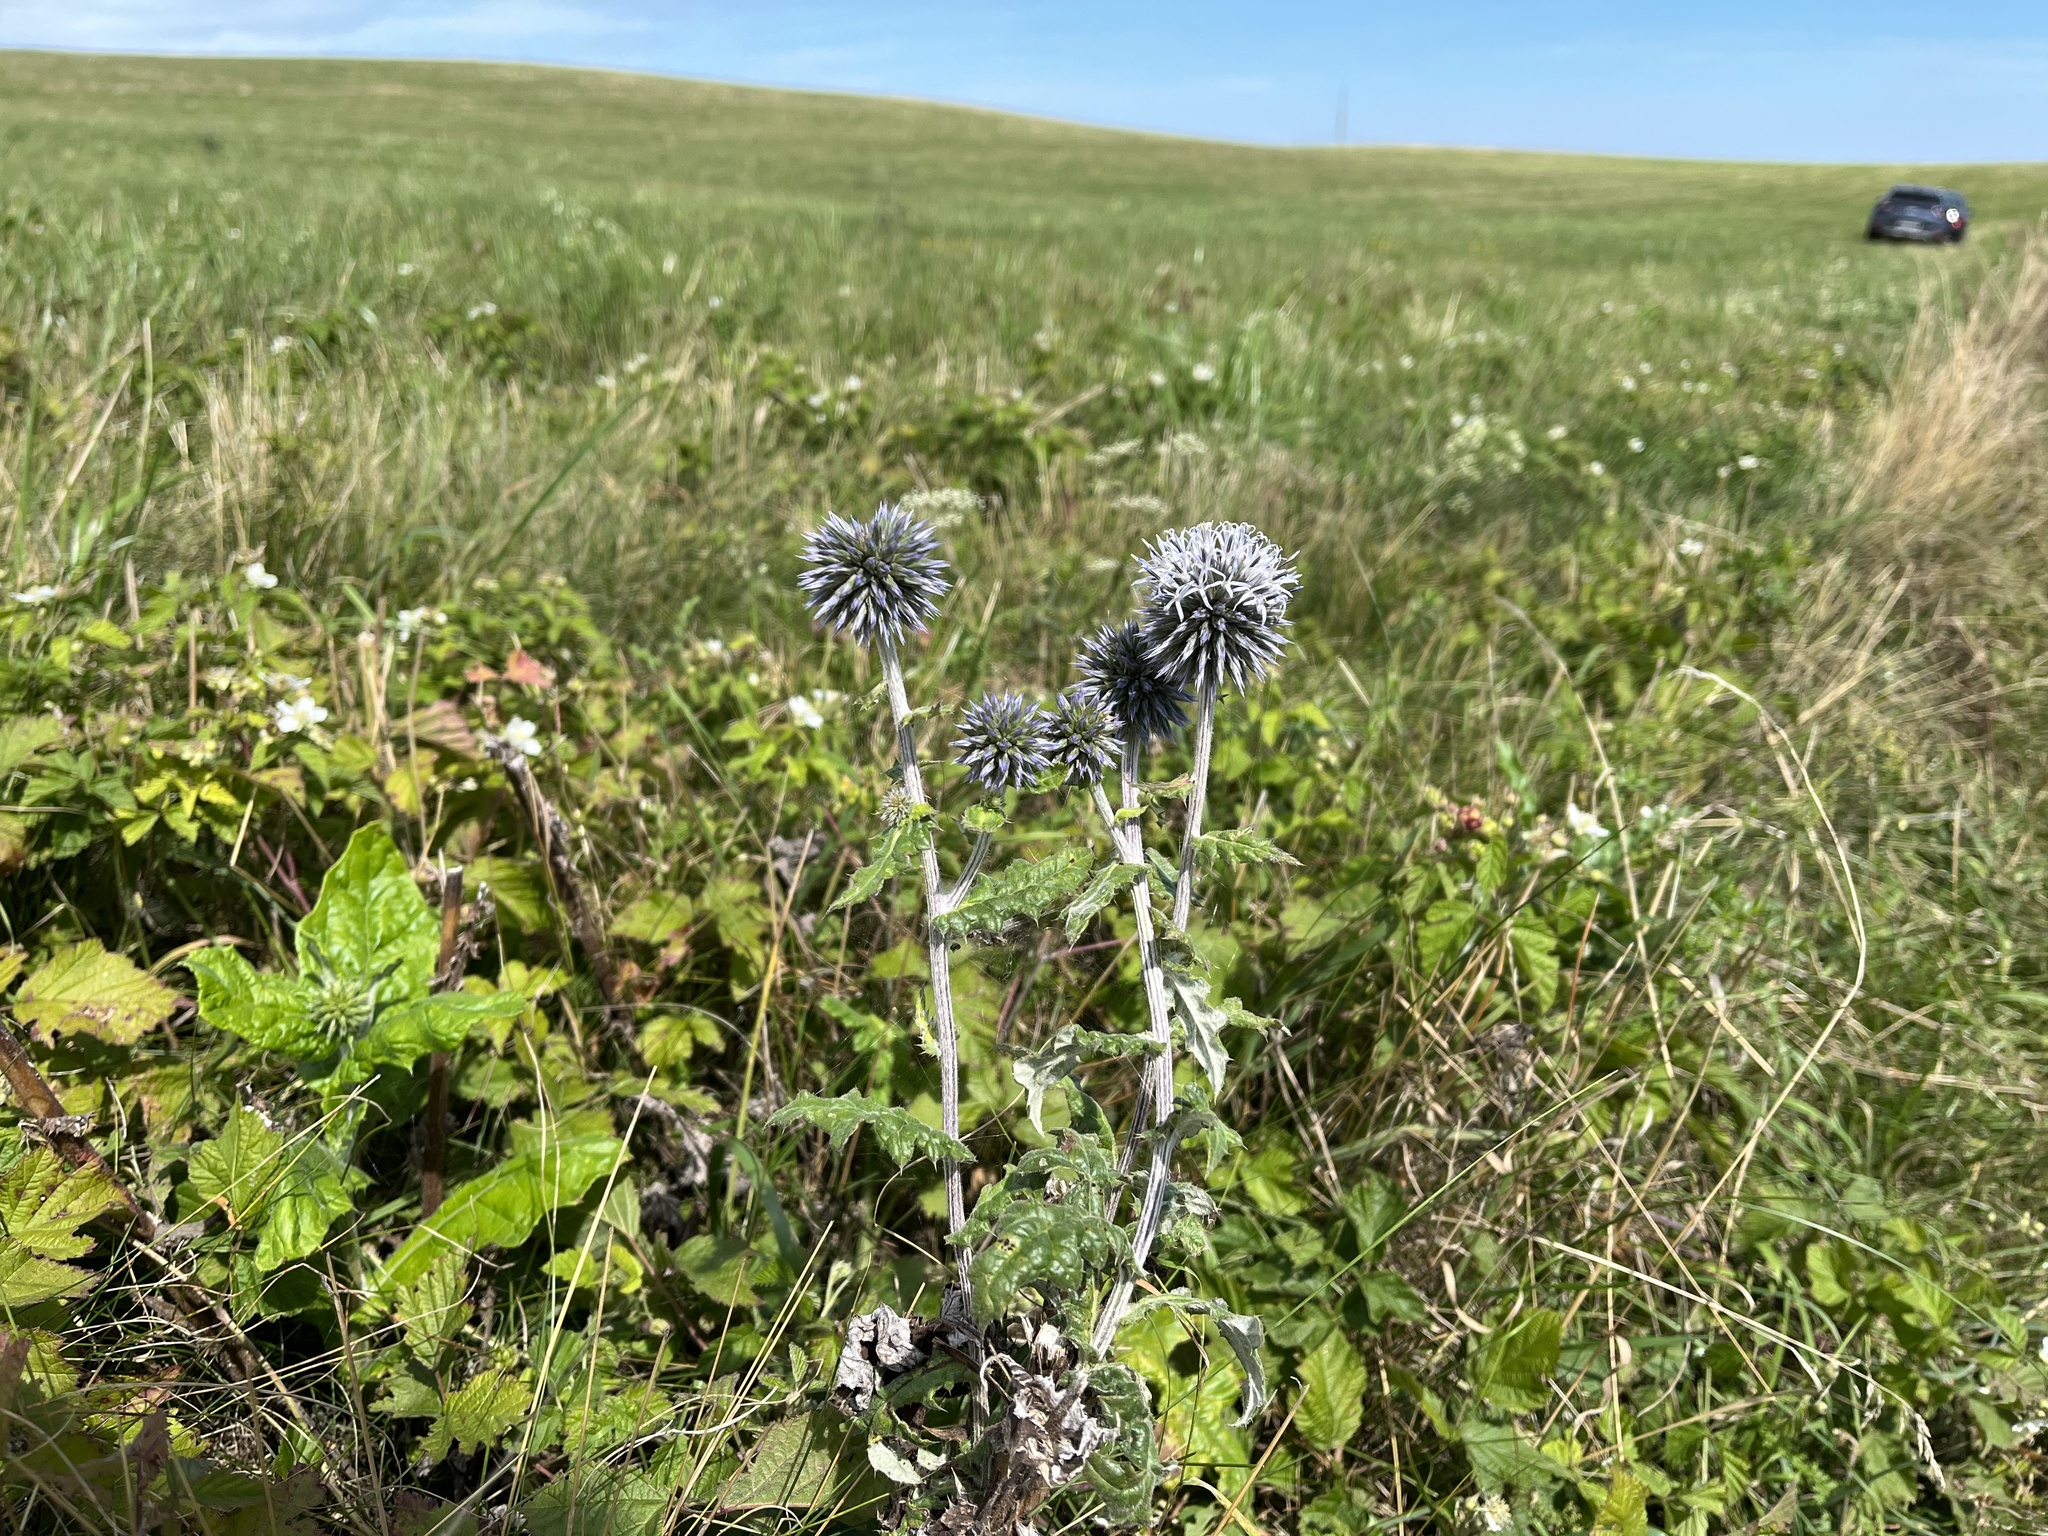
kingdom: Plantae
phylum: Tracheophyta
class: Magnoliopsida
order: Asterales
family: Asteraceae
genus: Echinops
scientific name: Echinops sphaerocephalus
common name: Glandular globe-thistle
